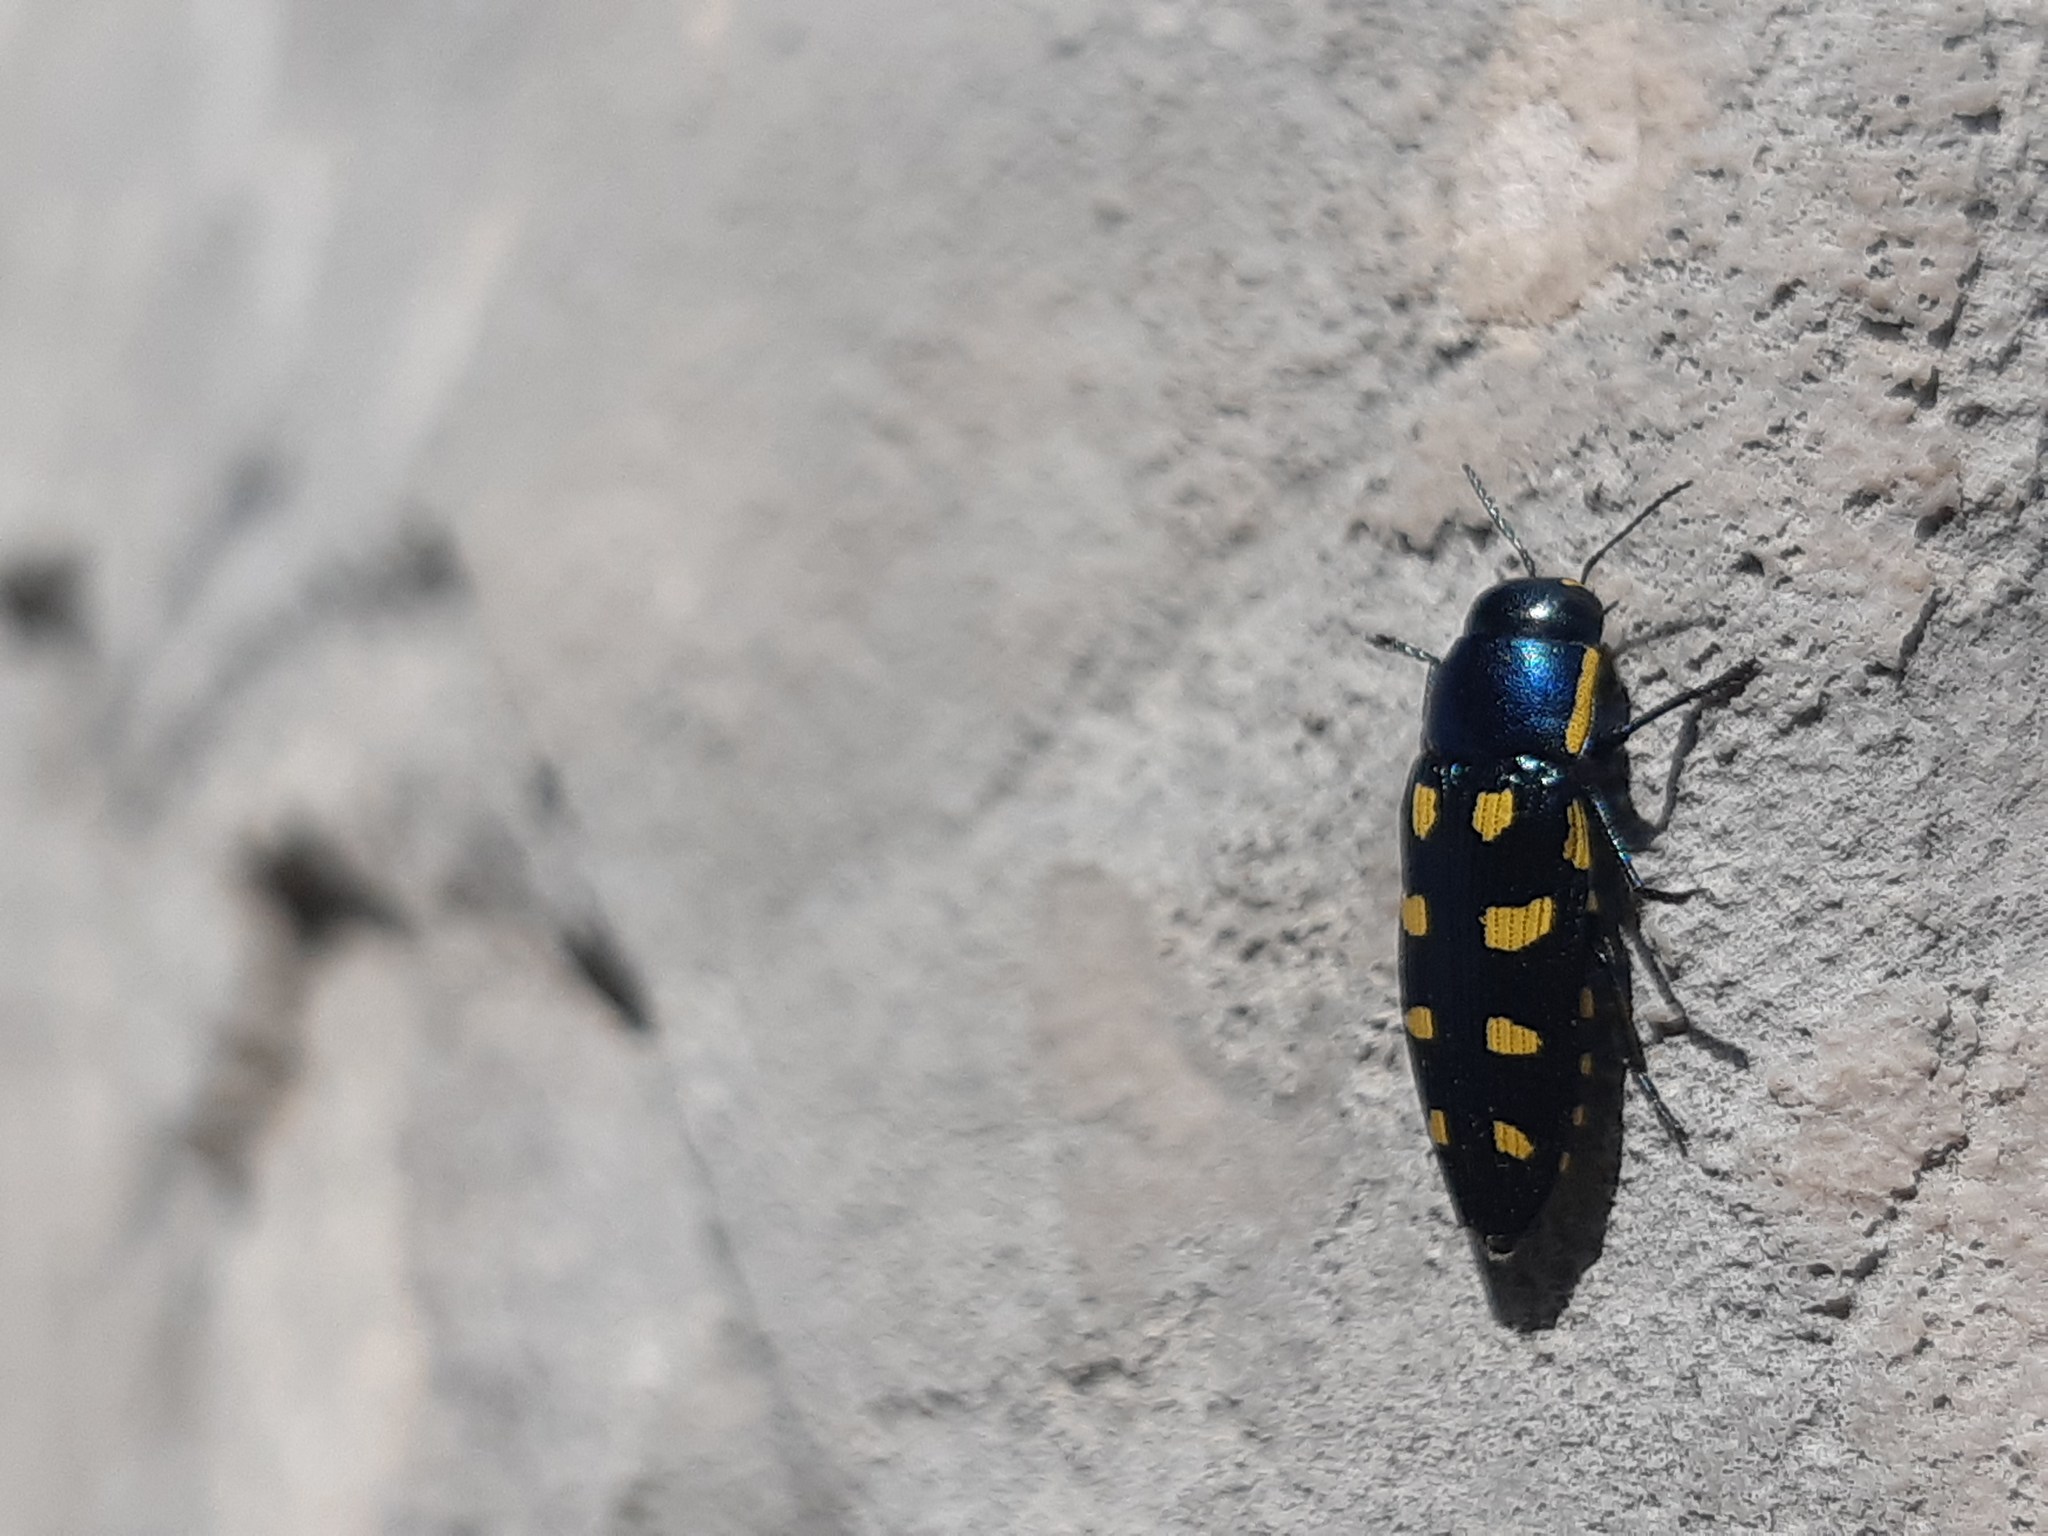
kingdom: Animalia
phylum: Arthropoda
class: Insecta
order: Coleoptera
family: Buprestidae
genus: Buprestis
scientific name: Buprestis octoguttata
